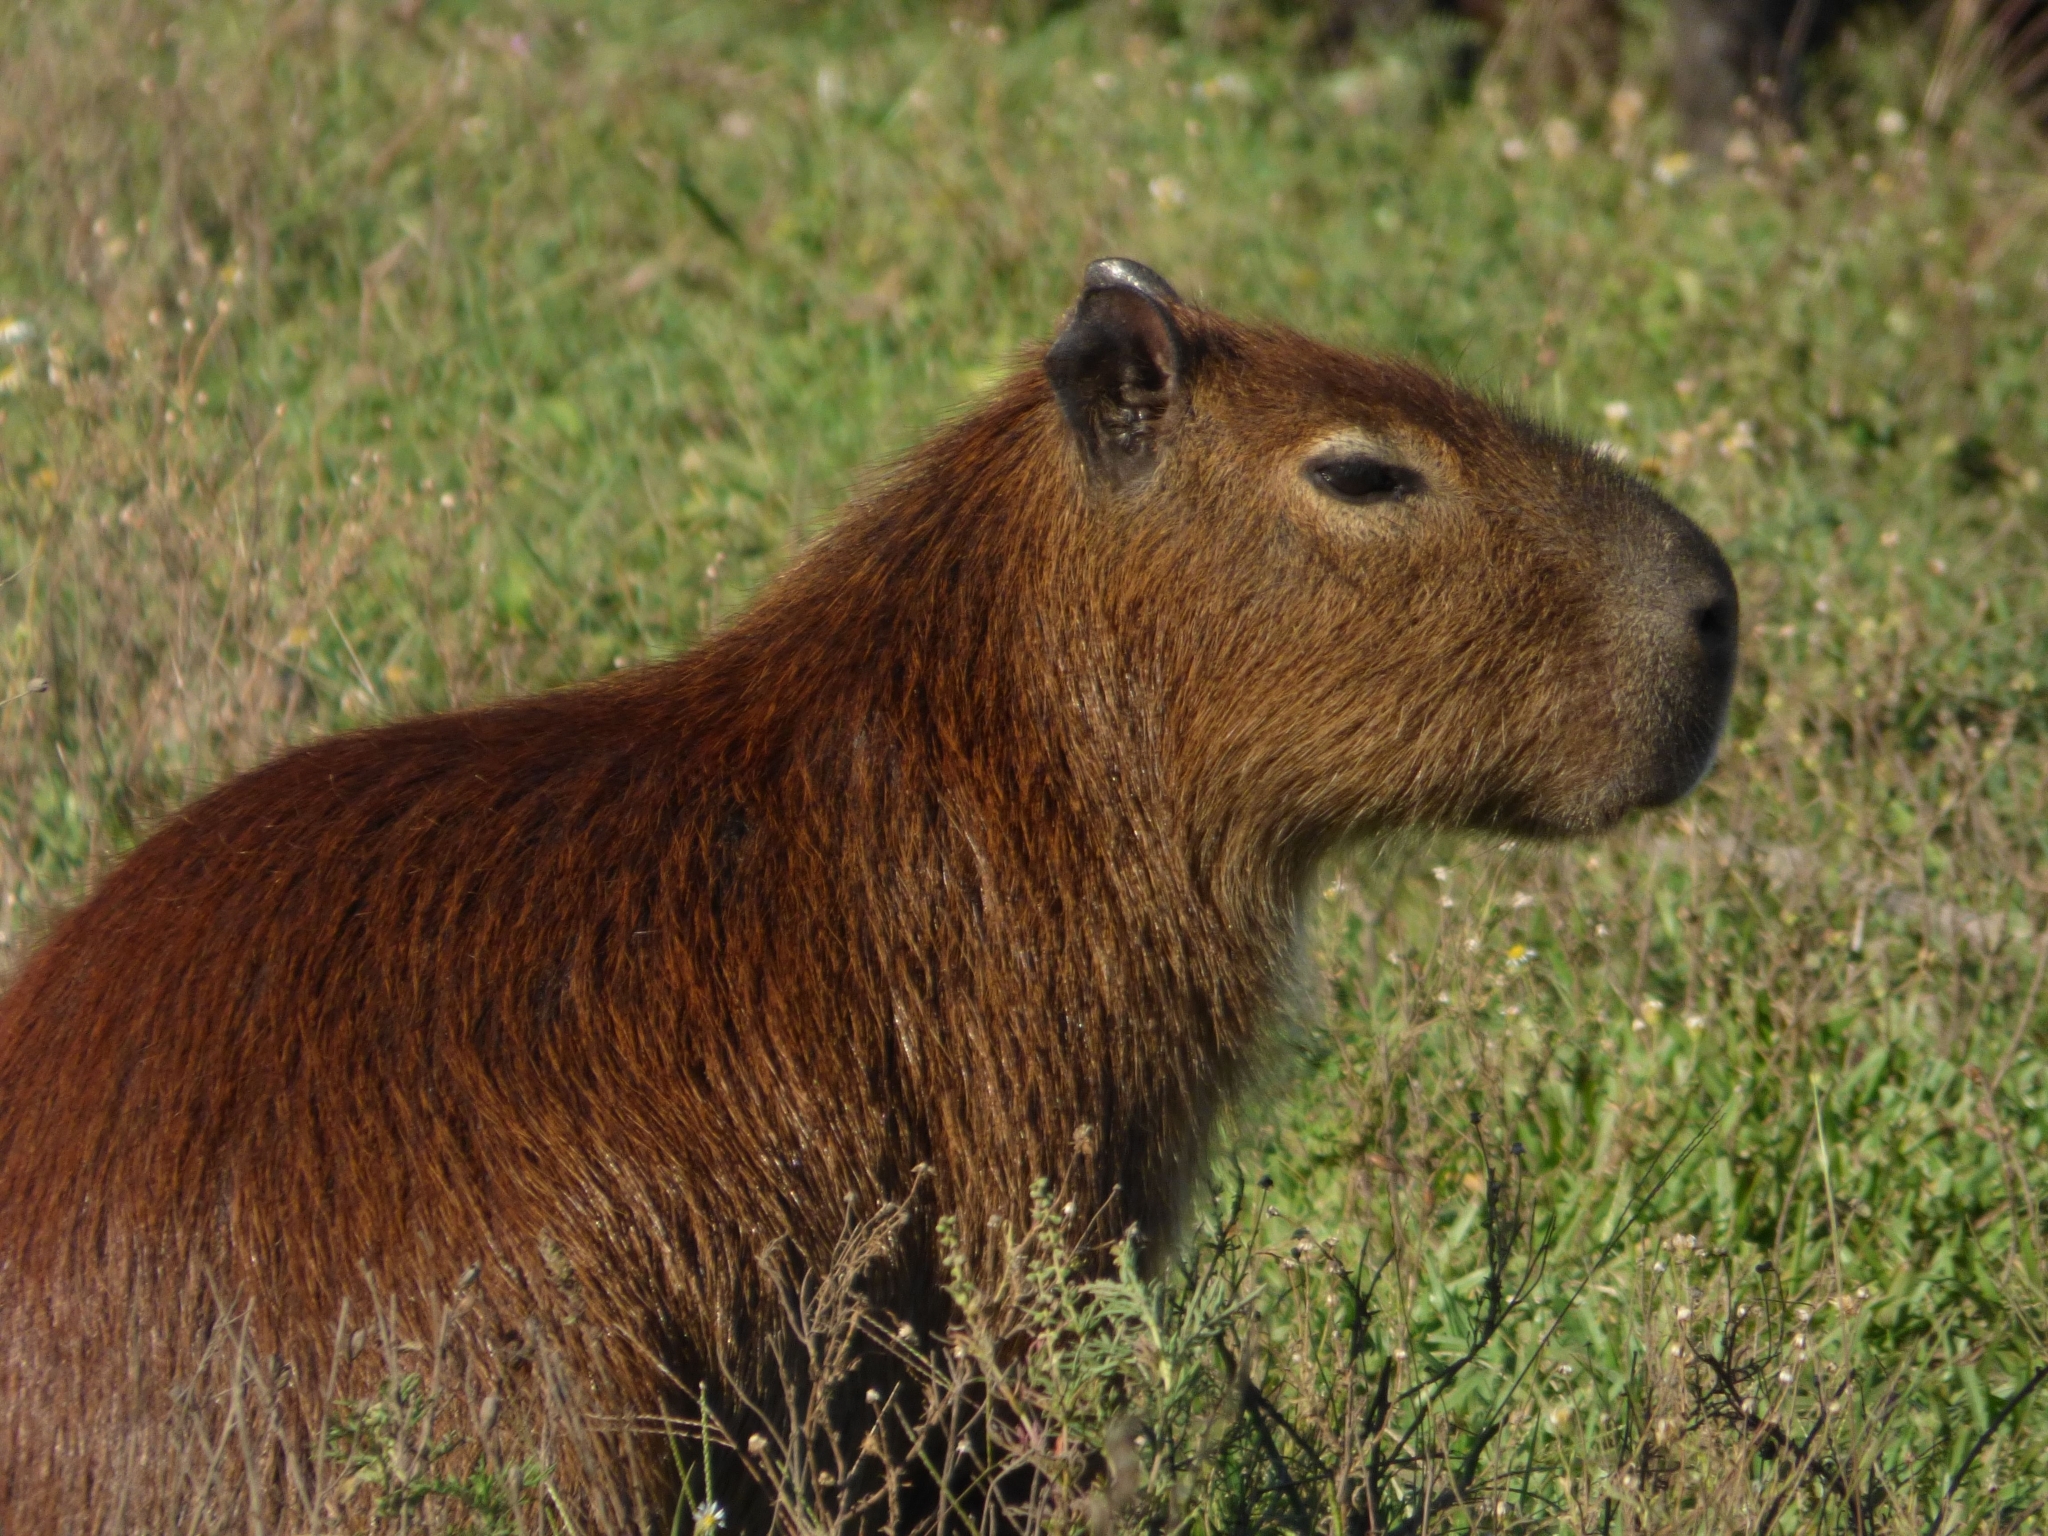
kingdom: Animalia
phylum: Chordata
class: Mammalia
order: Rodentia
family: Caviidae
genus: Hydrochoerus
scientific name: Hydrochoerus hydrochaeris
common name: Capybara
